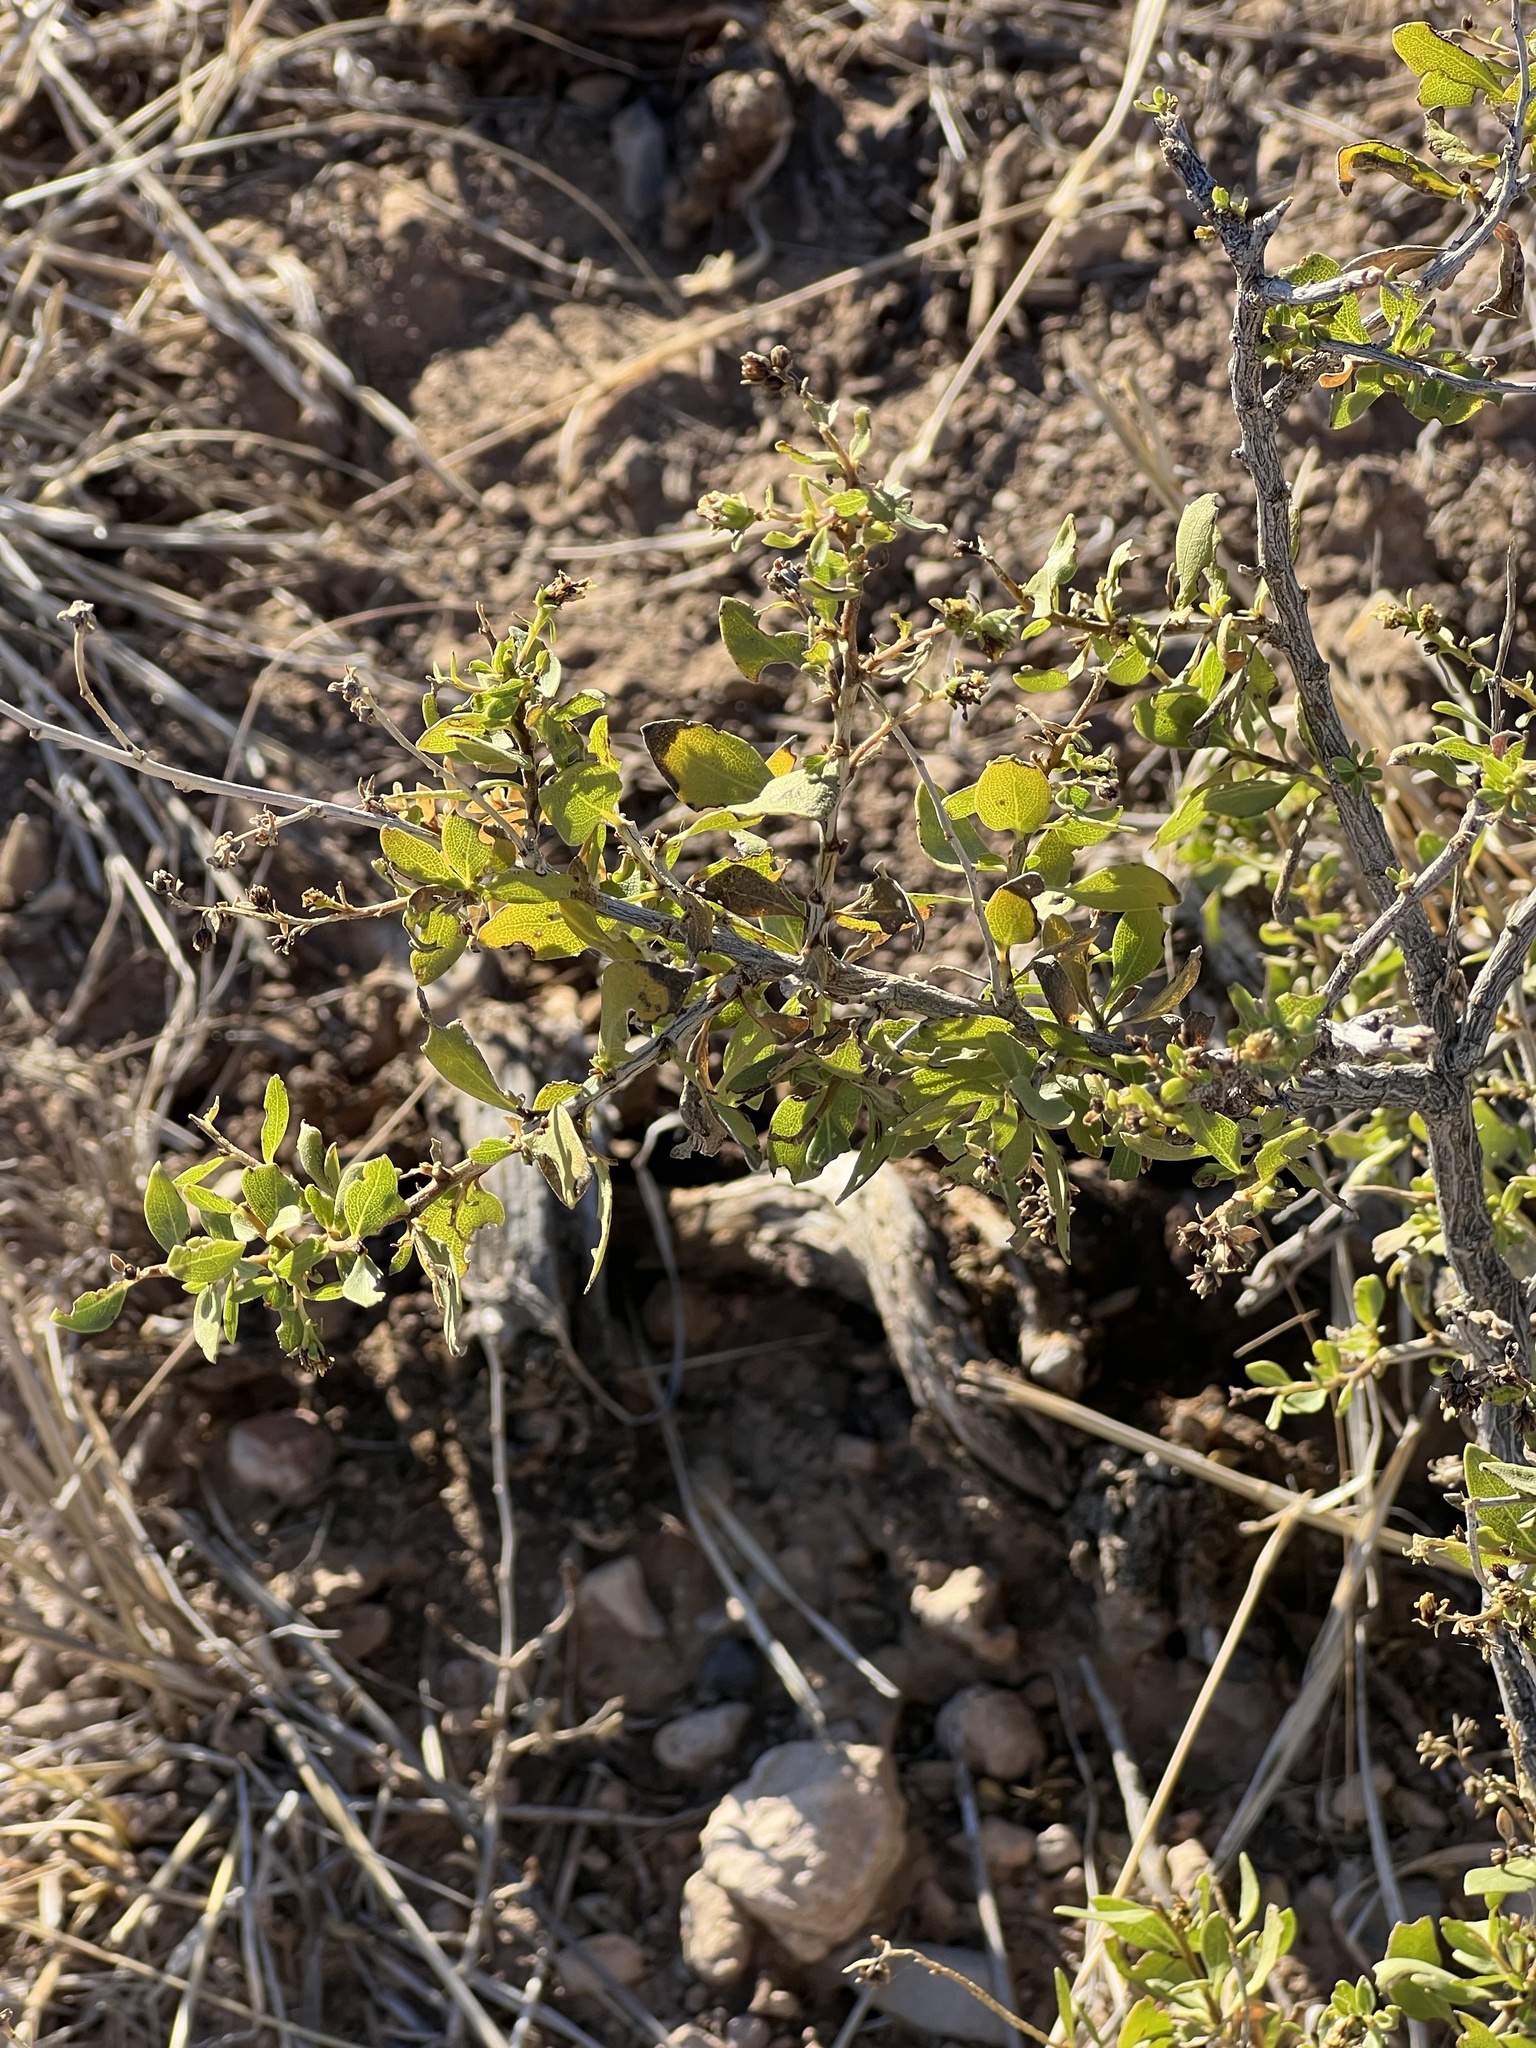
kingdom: Plantae
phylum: Tracheophyta
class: Magnoliopsida
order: Asterales
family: Asteraceae
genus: Flourensia
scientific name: Flourensia cernua
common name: Varnishbush
